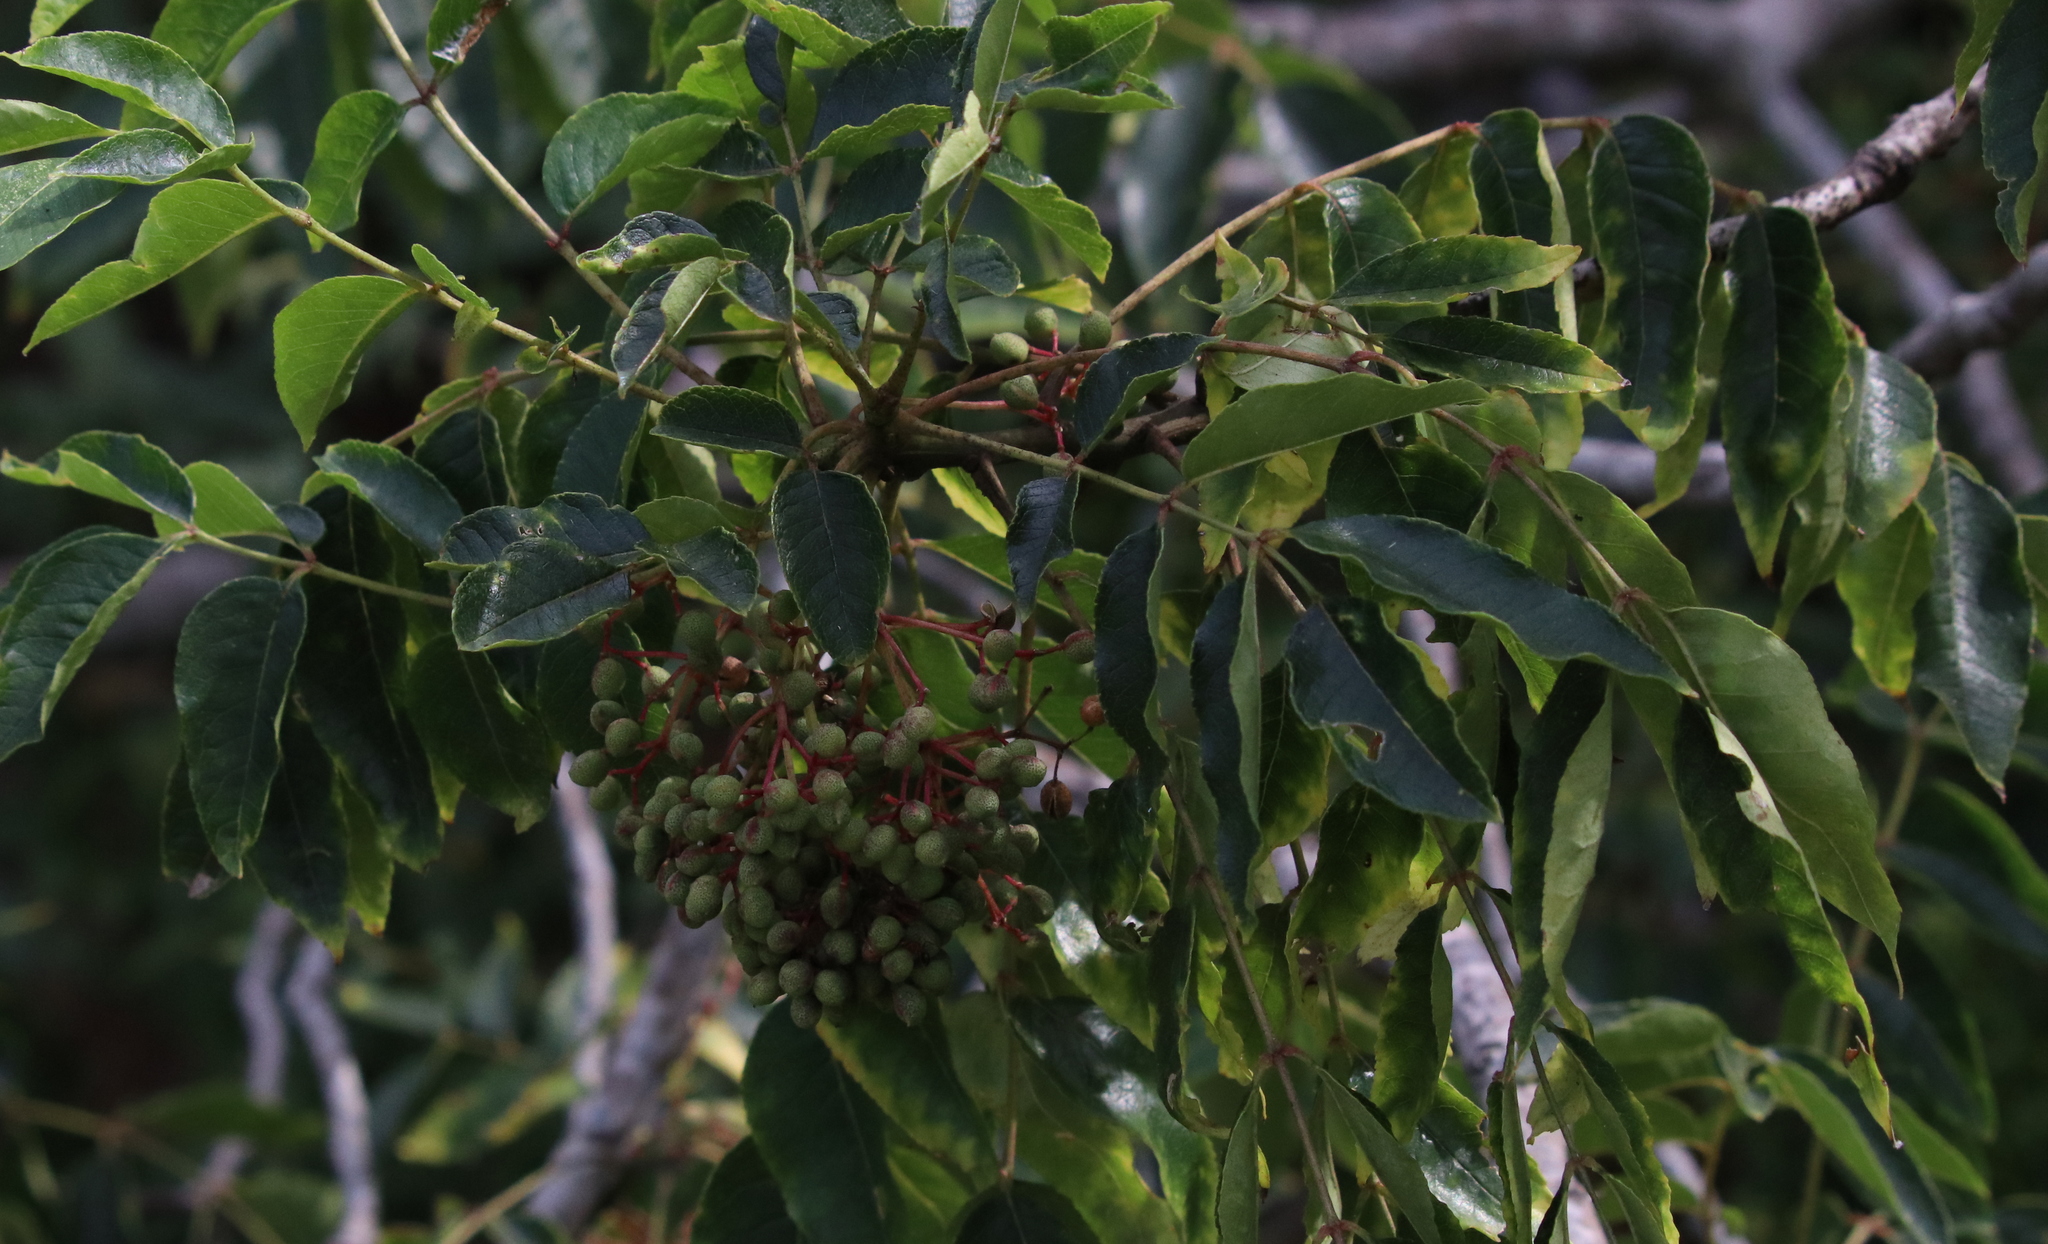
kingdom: Plantae
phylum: Tracheophyta
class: Magnoliopsida
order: Sapindales
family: Rutaceae
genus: Zanthoxylum
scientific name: Zanthoxylum clava-herculis
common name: Hercules'-club
